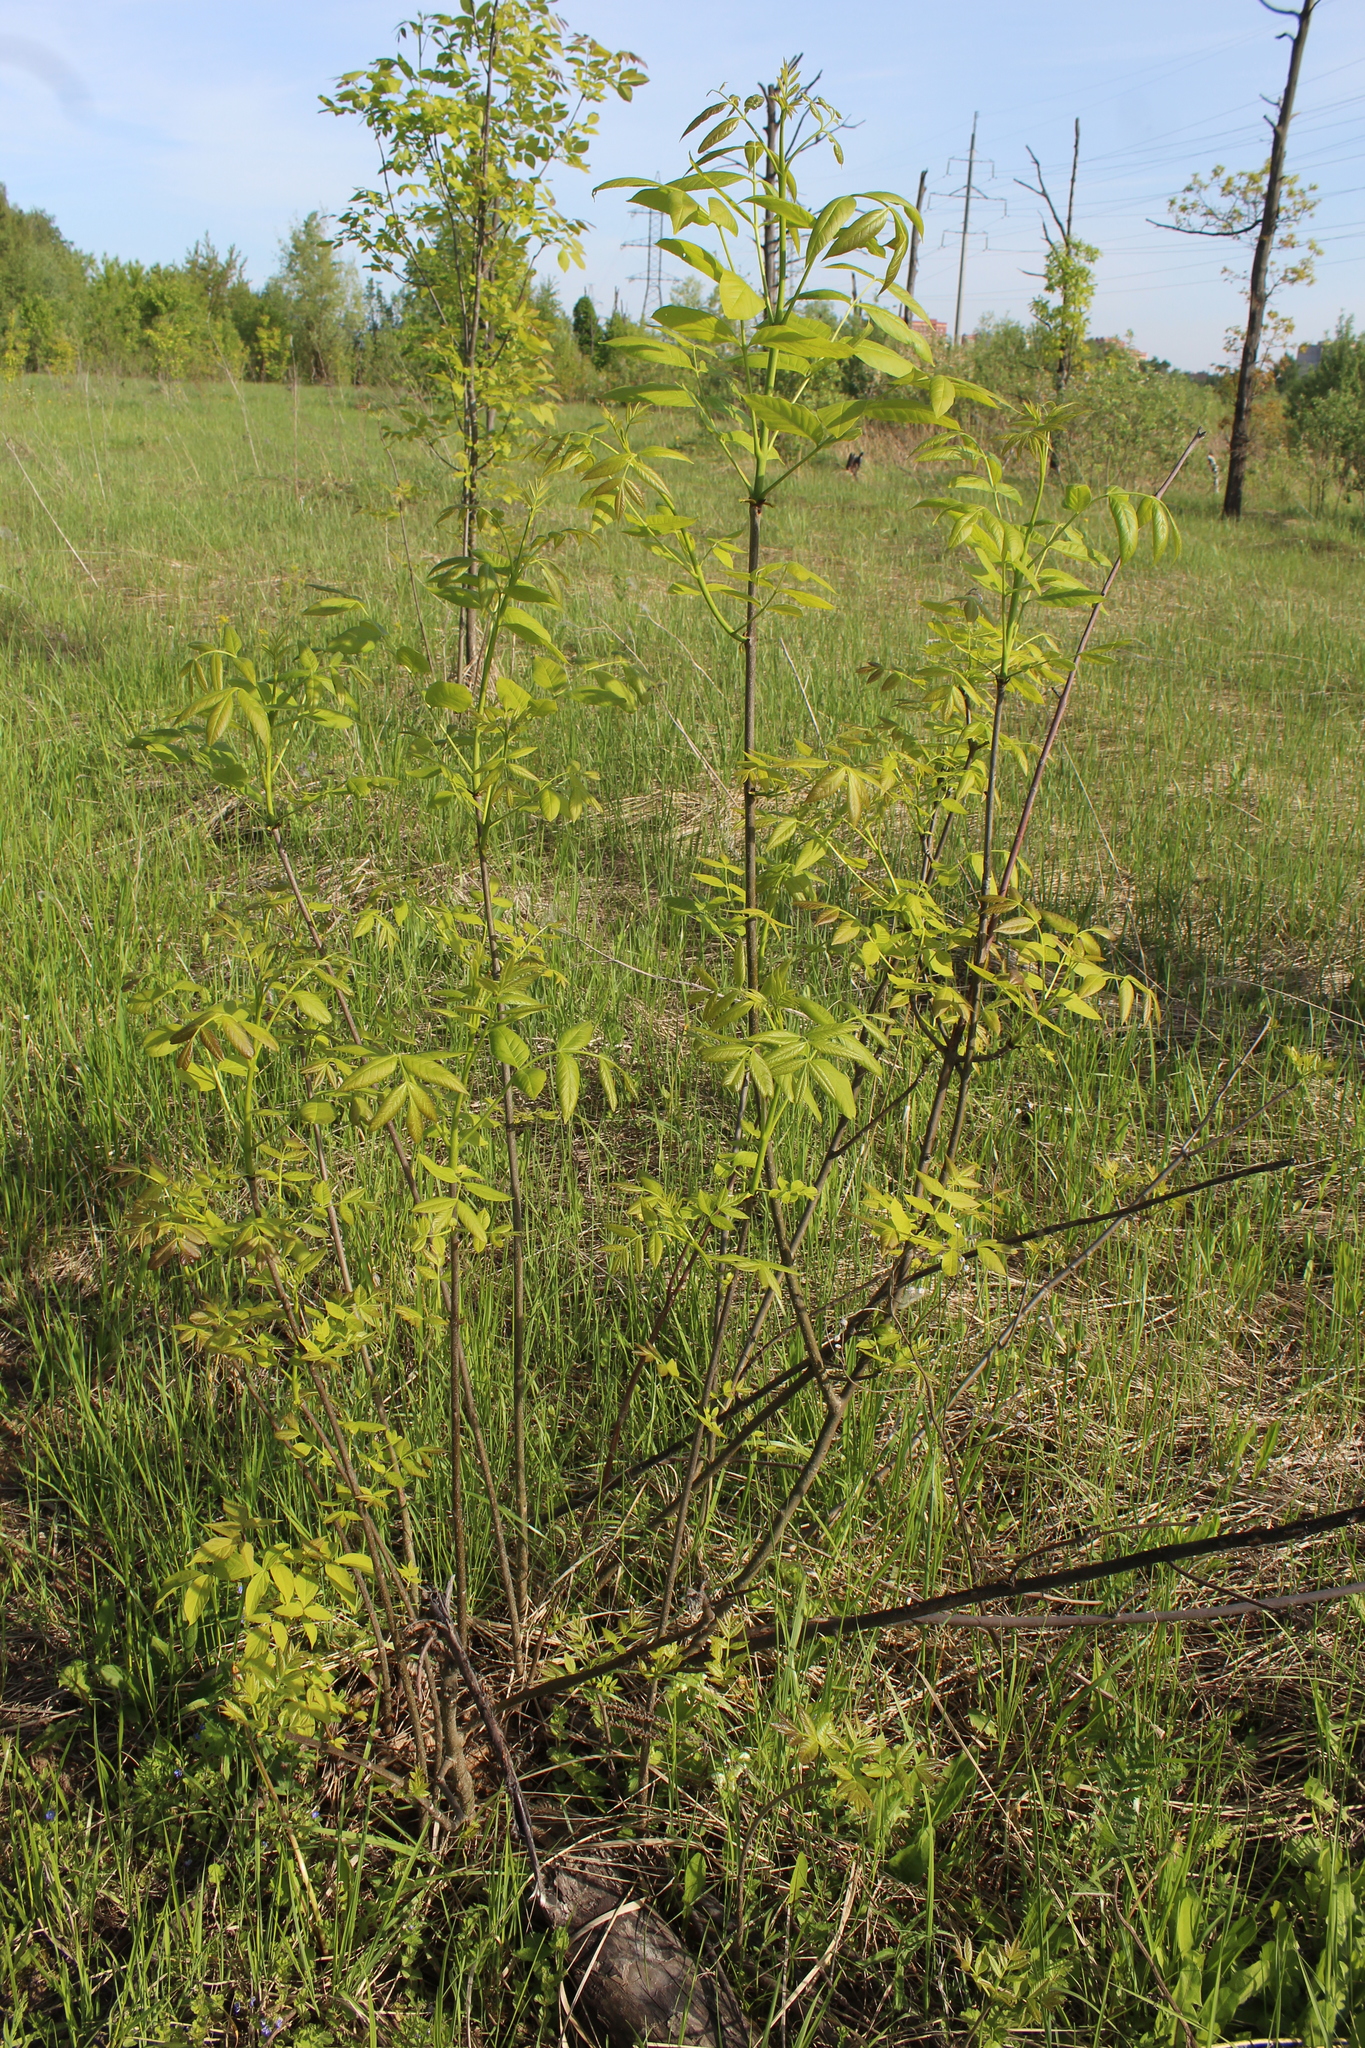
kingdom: Plantae
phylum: Tracheophyta
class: Magnoliopsida
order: Lamiales
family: Oleaceae
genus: Fraxinus
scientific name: Fraxinus pennsylvanica
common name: Green ash
